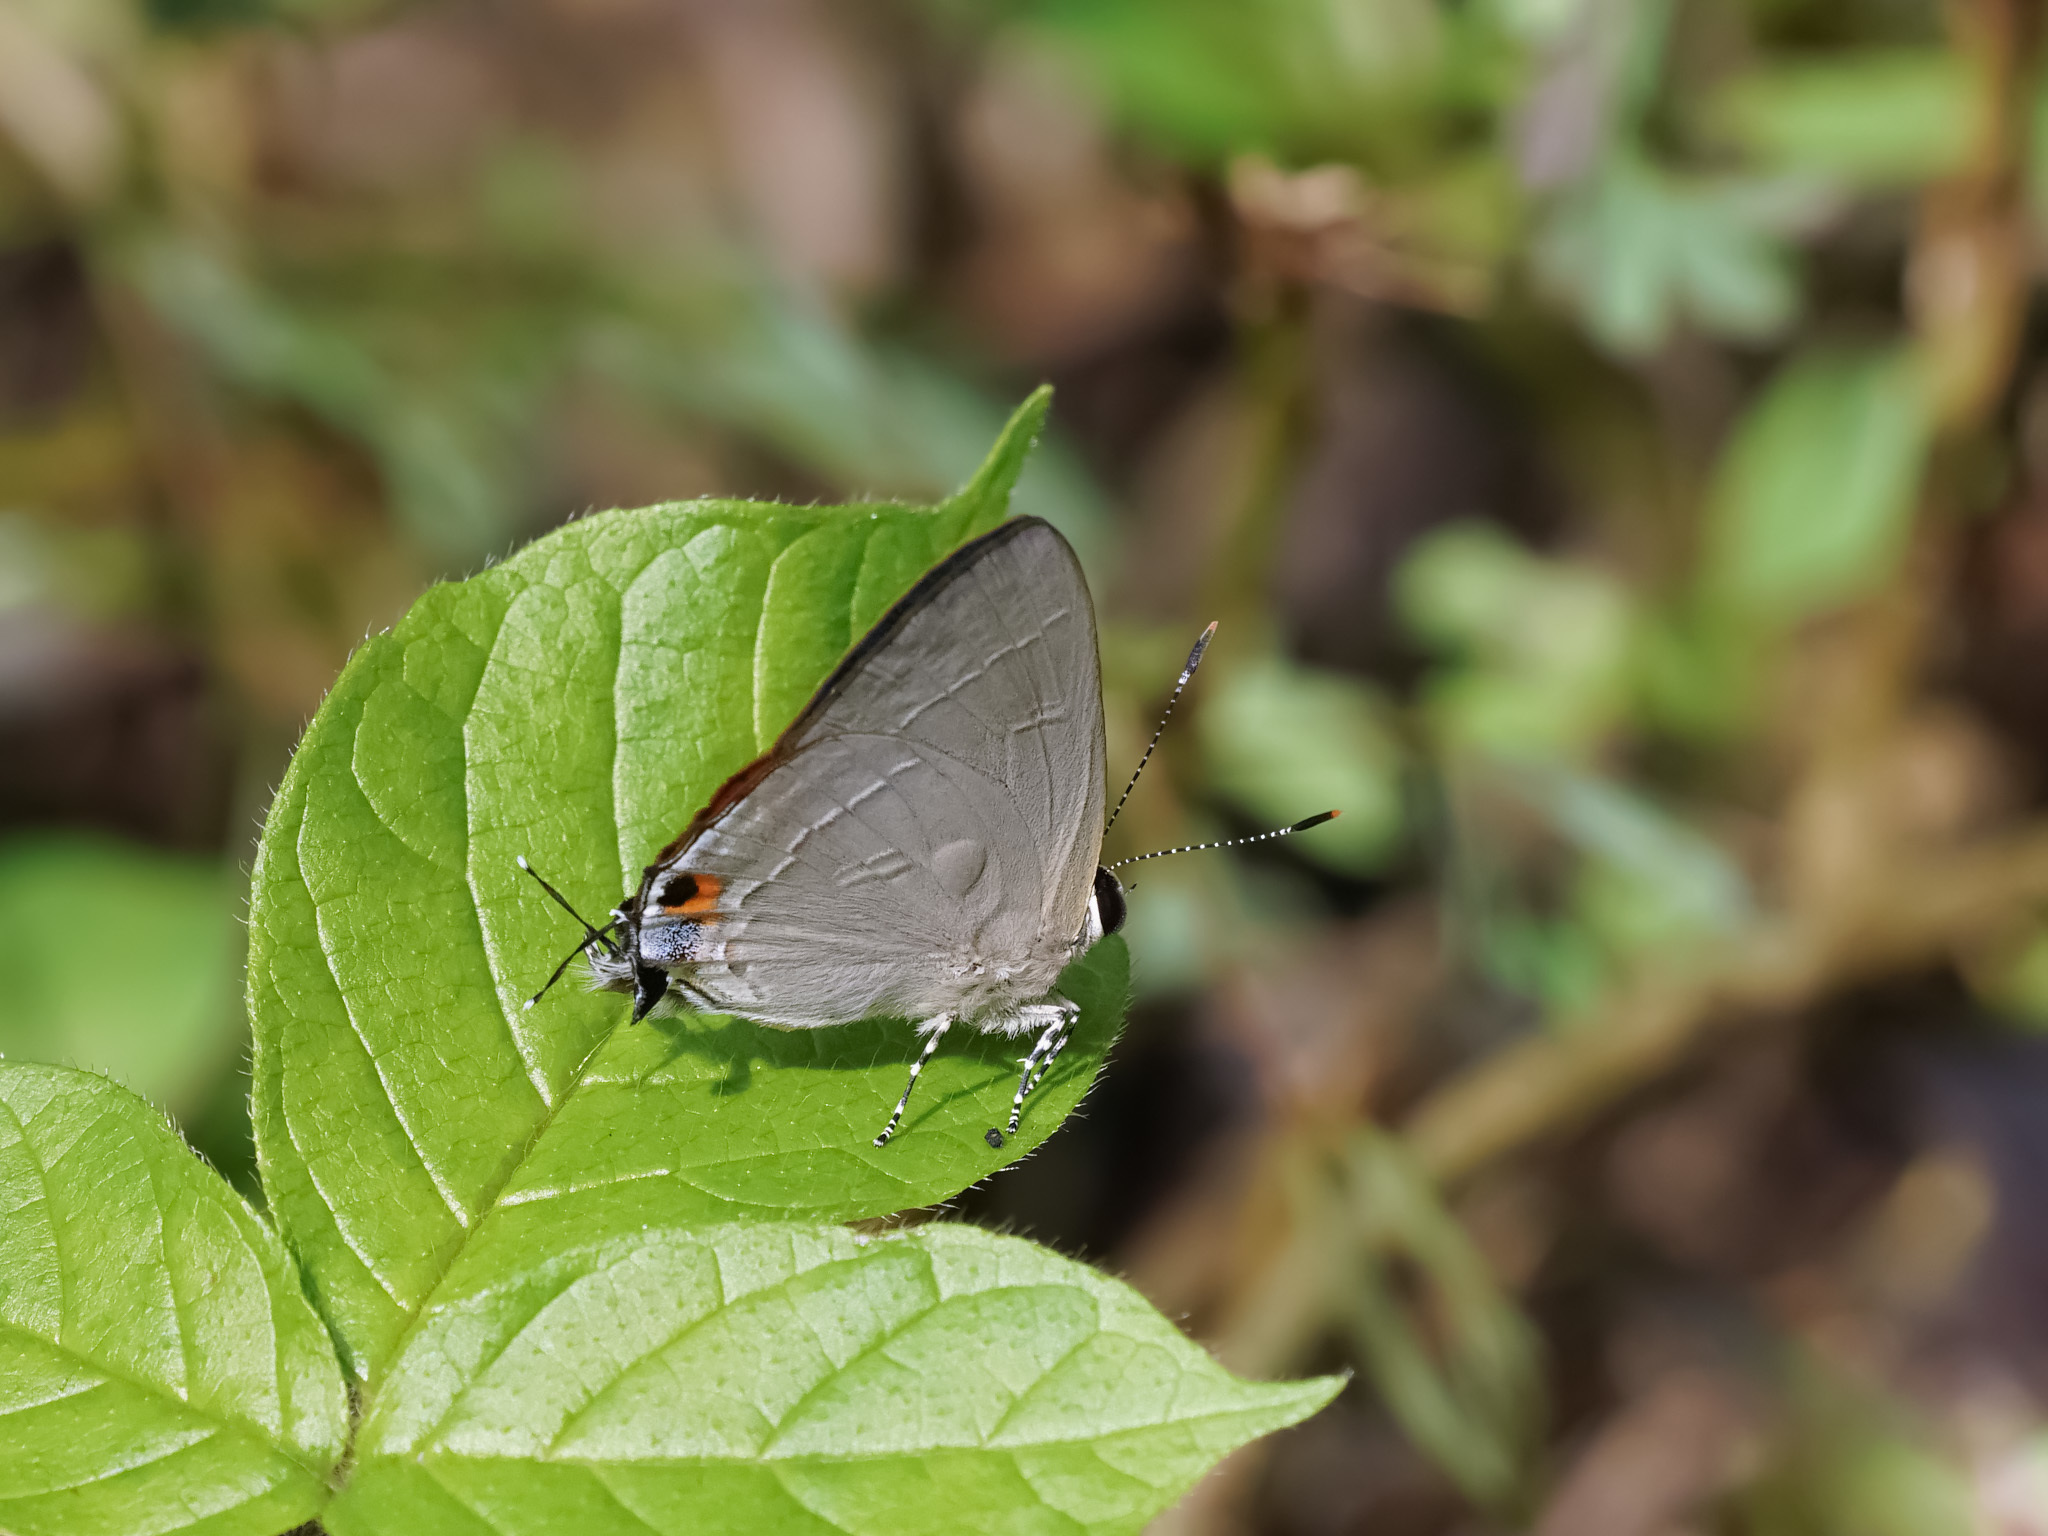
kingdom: Animalia
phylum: Arthropoda
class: Insecta
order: Lepidoptera
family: Lycaenidae
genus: Rapala
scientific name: Rapala iarbus
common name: Common red flash
